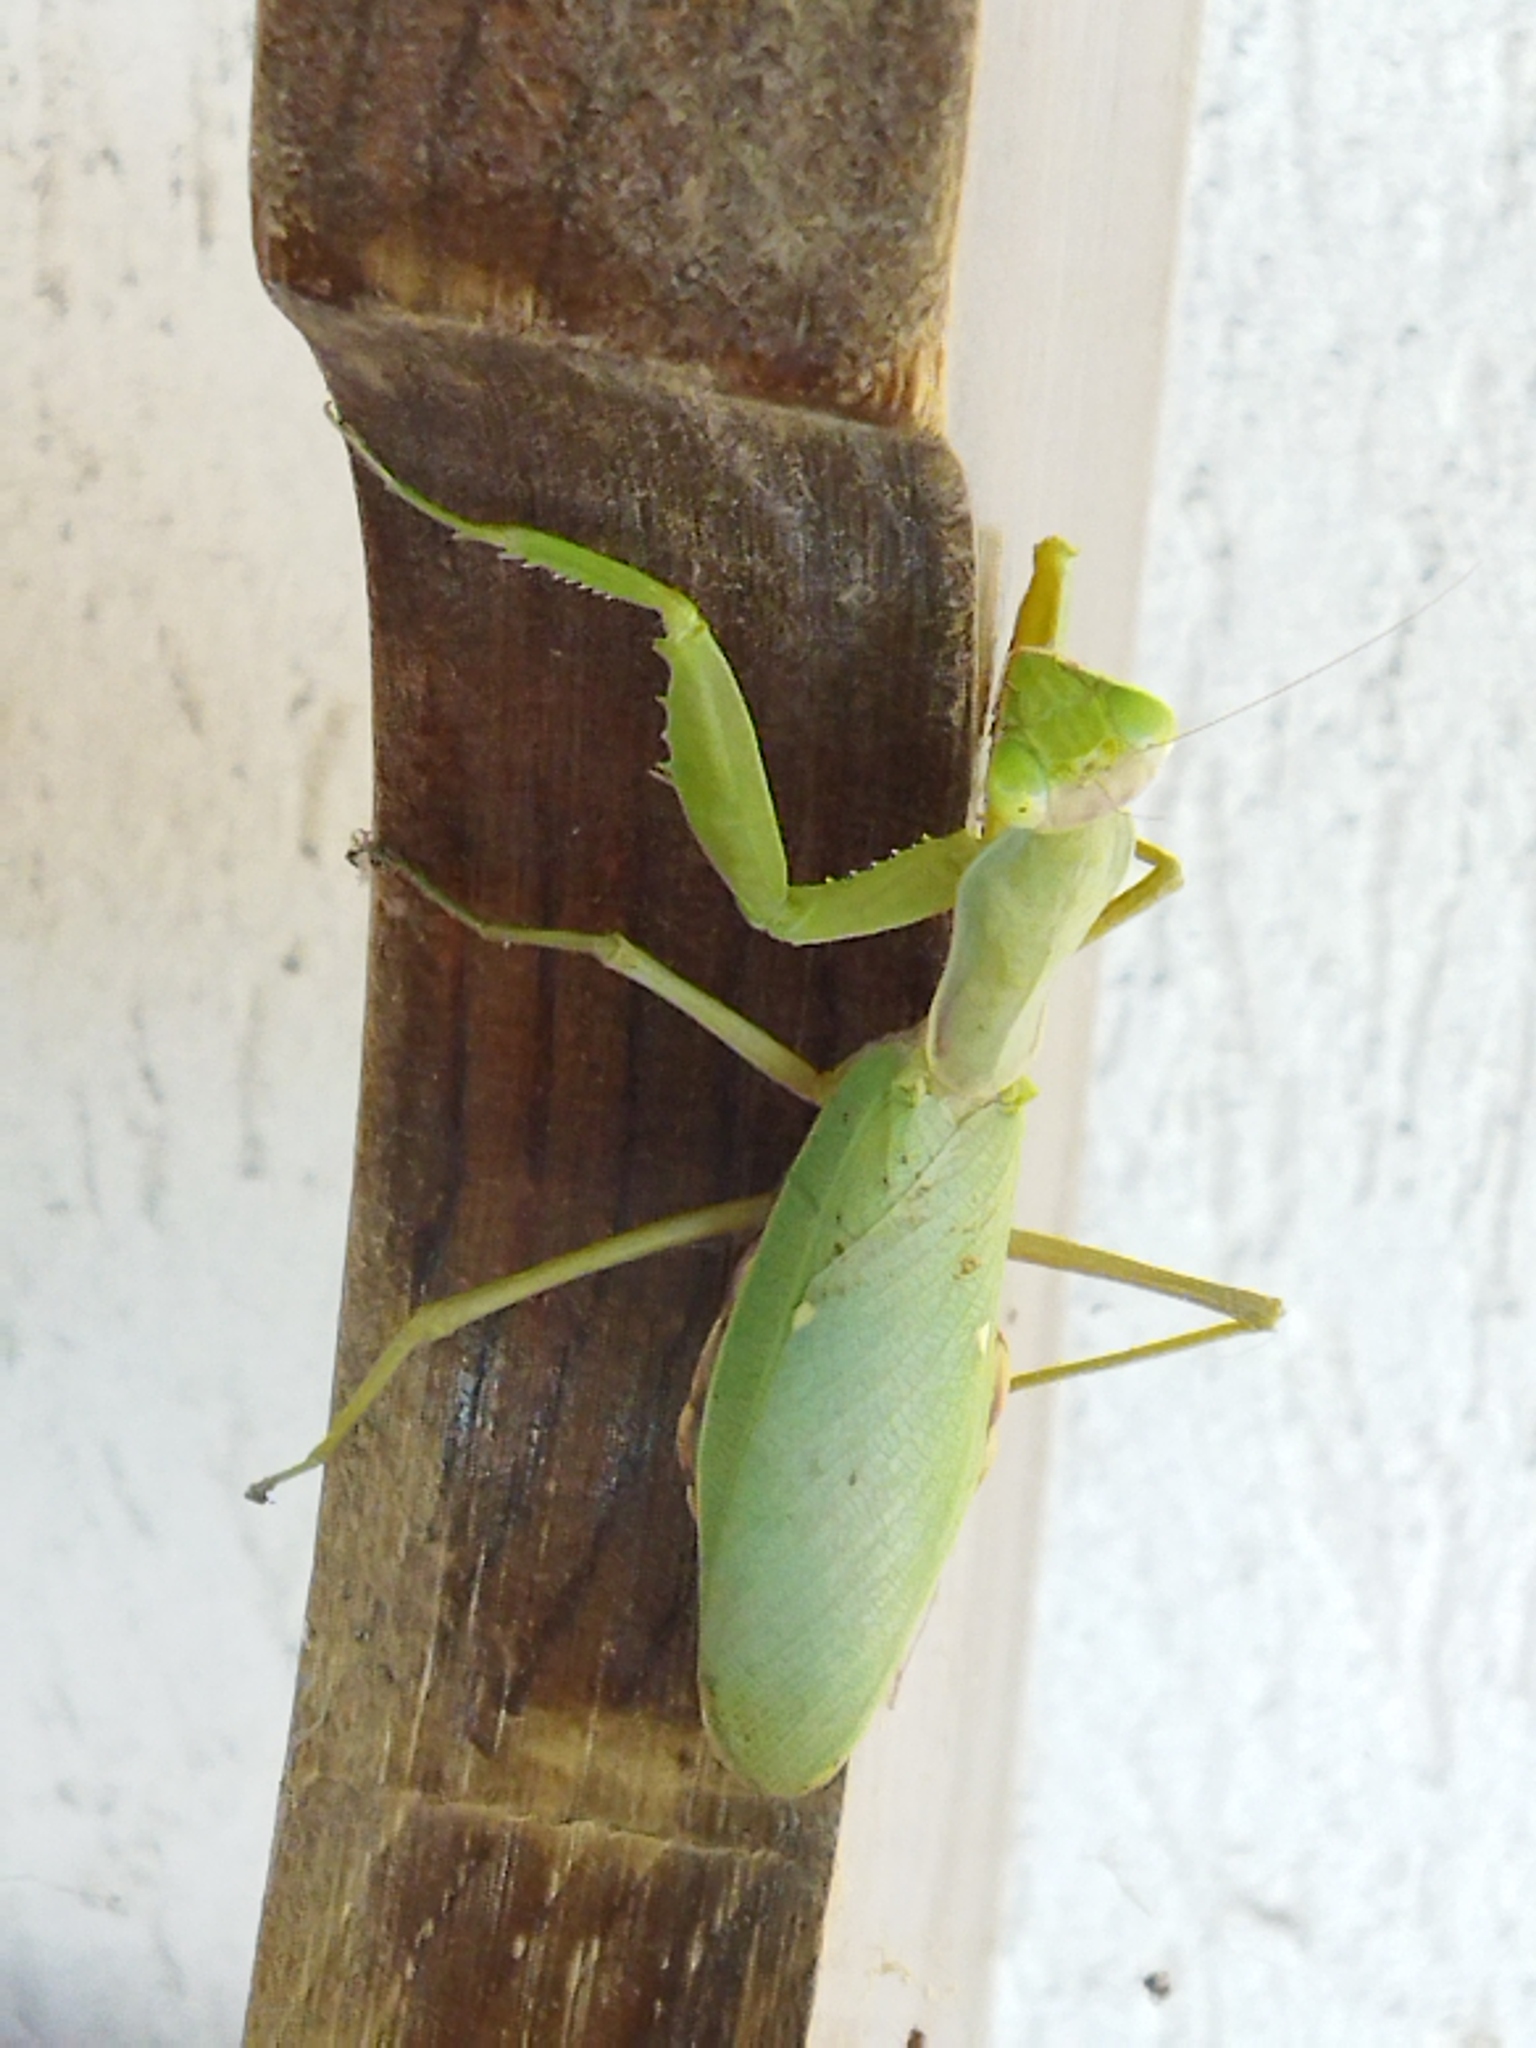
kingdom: Animalia
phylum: Arthropoda
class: Insecta
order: Mantodea
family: Mantidae
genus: Hierodula
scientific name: Hierodula transcaucasica
